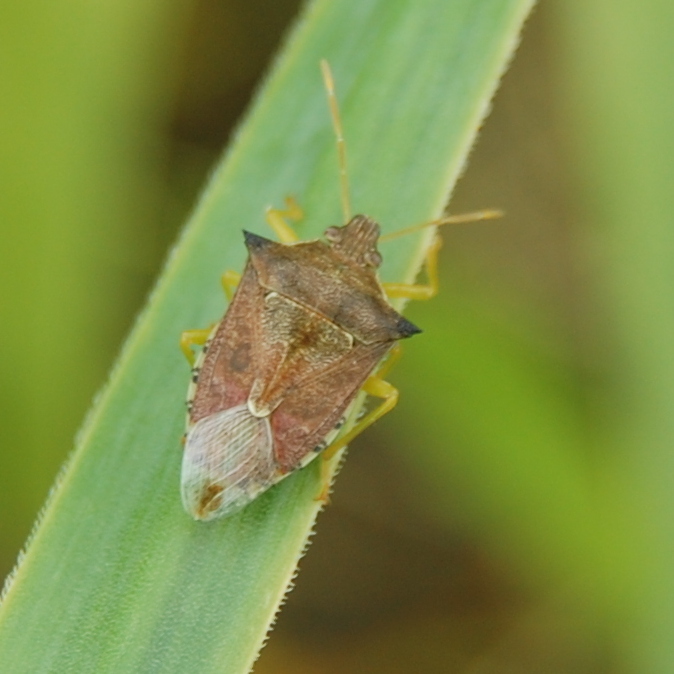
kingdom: Animalia
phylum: Arthropoda
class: Insecta
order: Hemiptera
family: Pentatomidae
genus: Podisus
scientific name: Podisus nigrispinus
